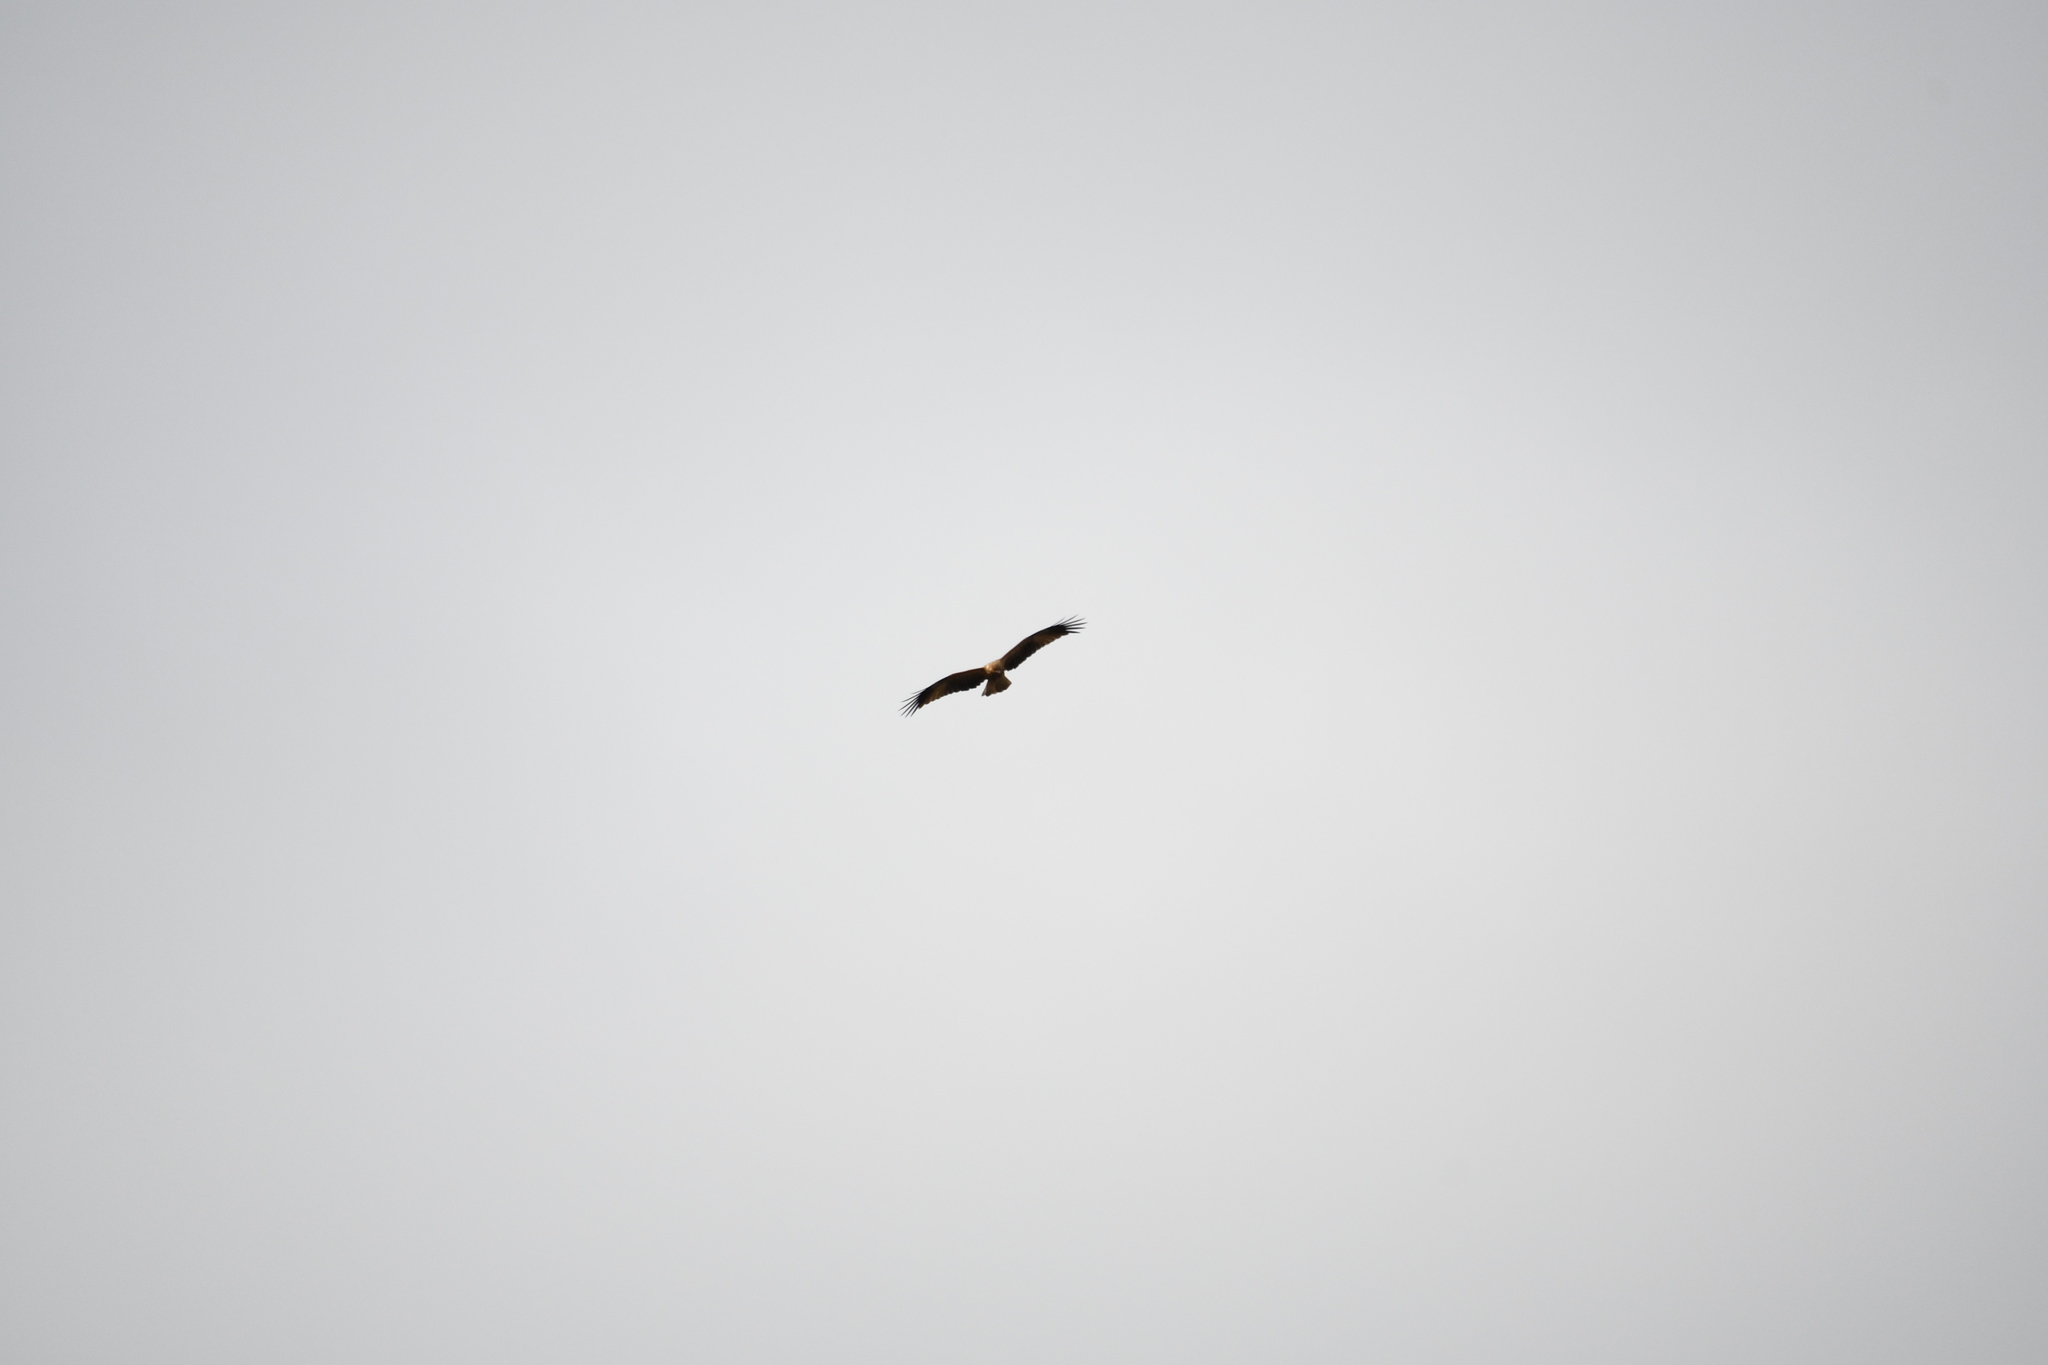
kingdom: Animalia
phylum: Chordata
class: Aves
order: Accipitriformes
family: Accipitridae
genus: Haliastur
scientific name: Haliastur sphenurus
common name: Whistling kite
